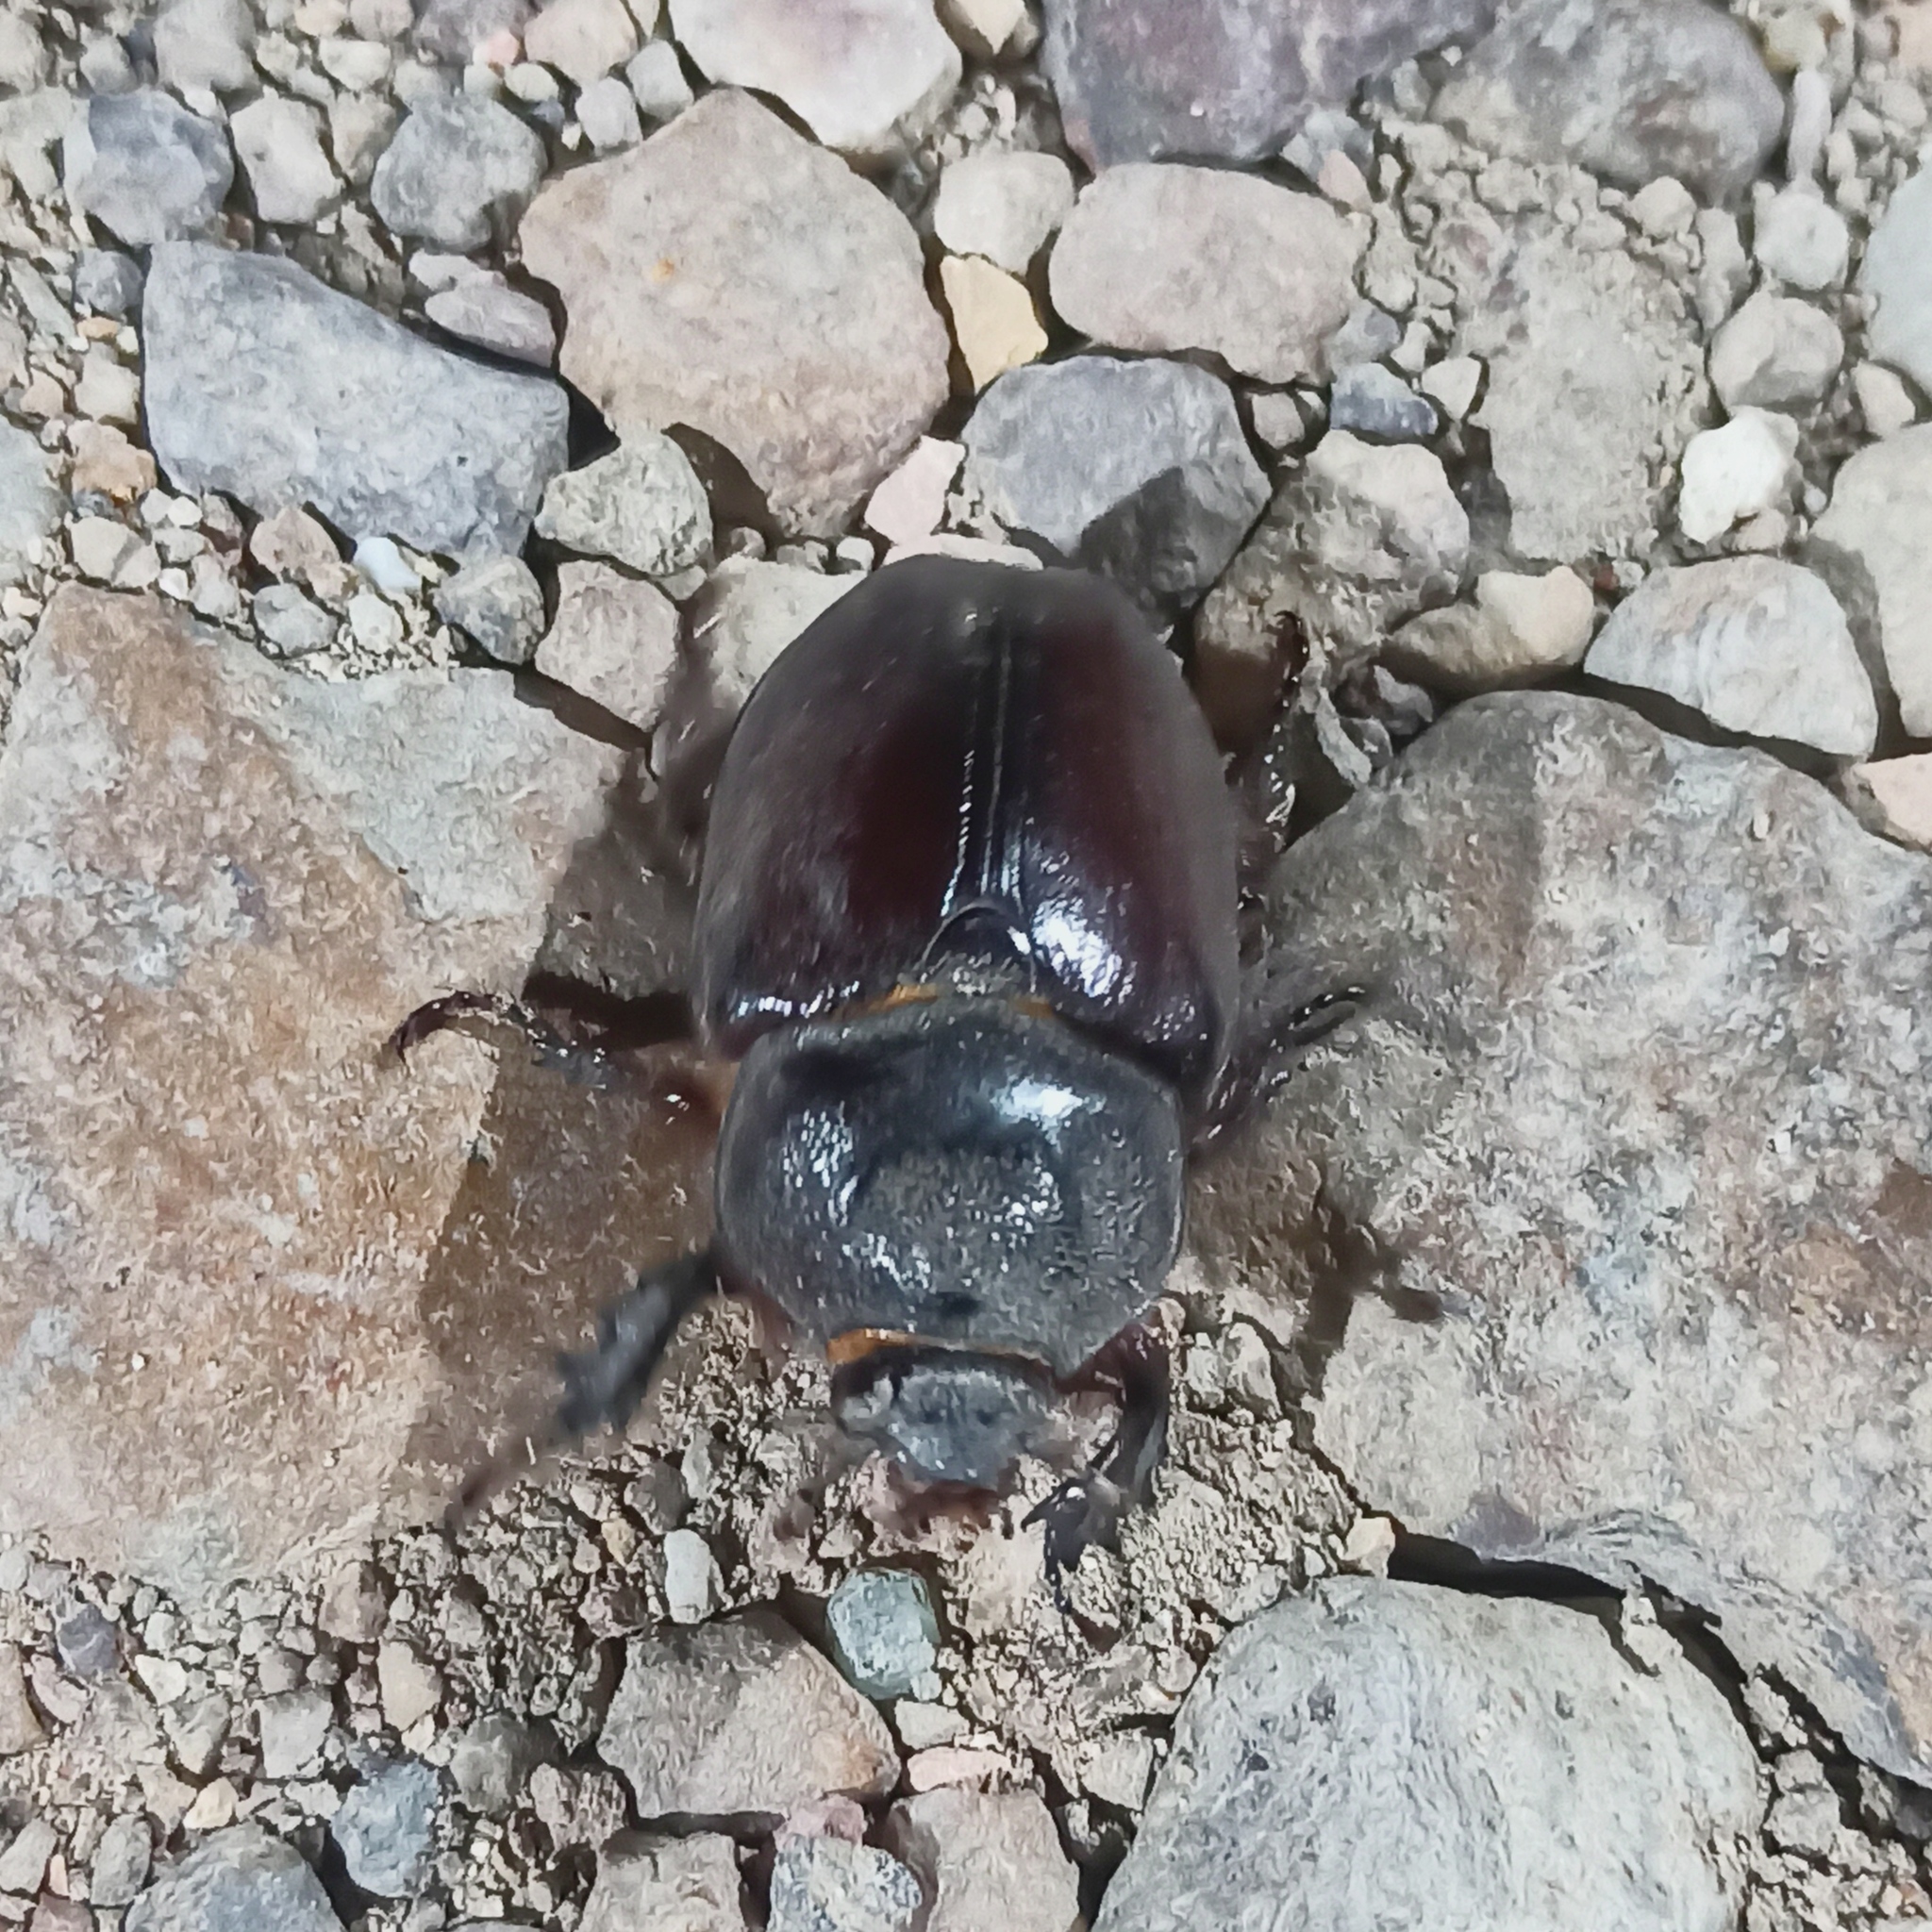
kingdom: Animalia
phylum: Arthropoda
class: Insecta
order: Coleoptera
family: Scarabaeidae
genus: Strategus
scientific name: Strategus aloeus
